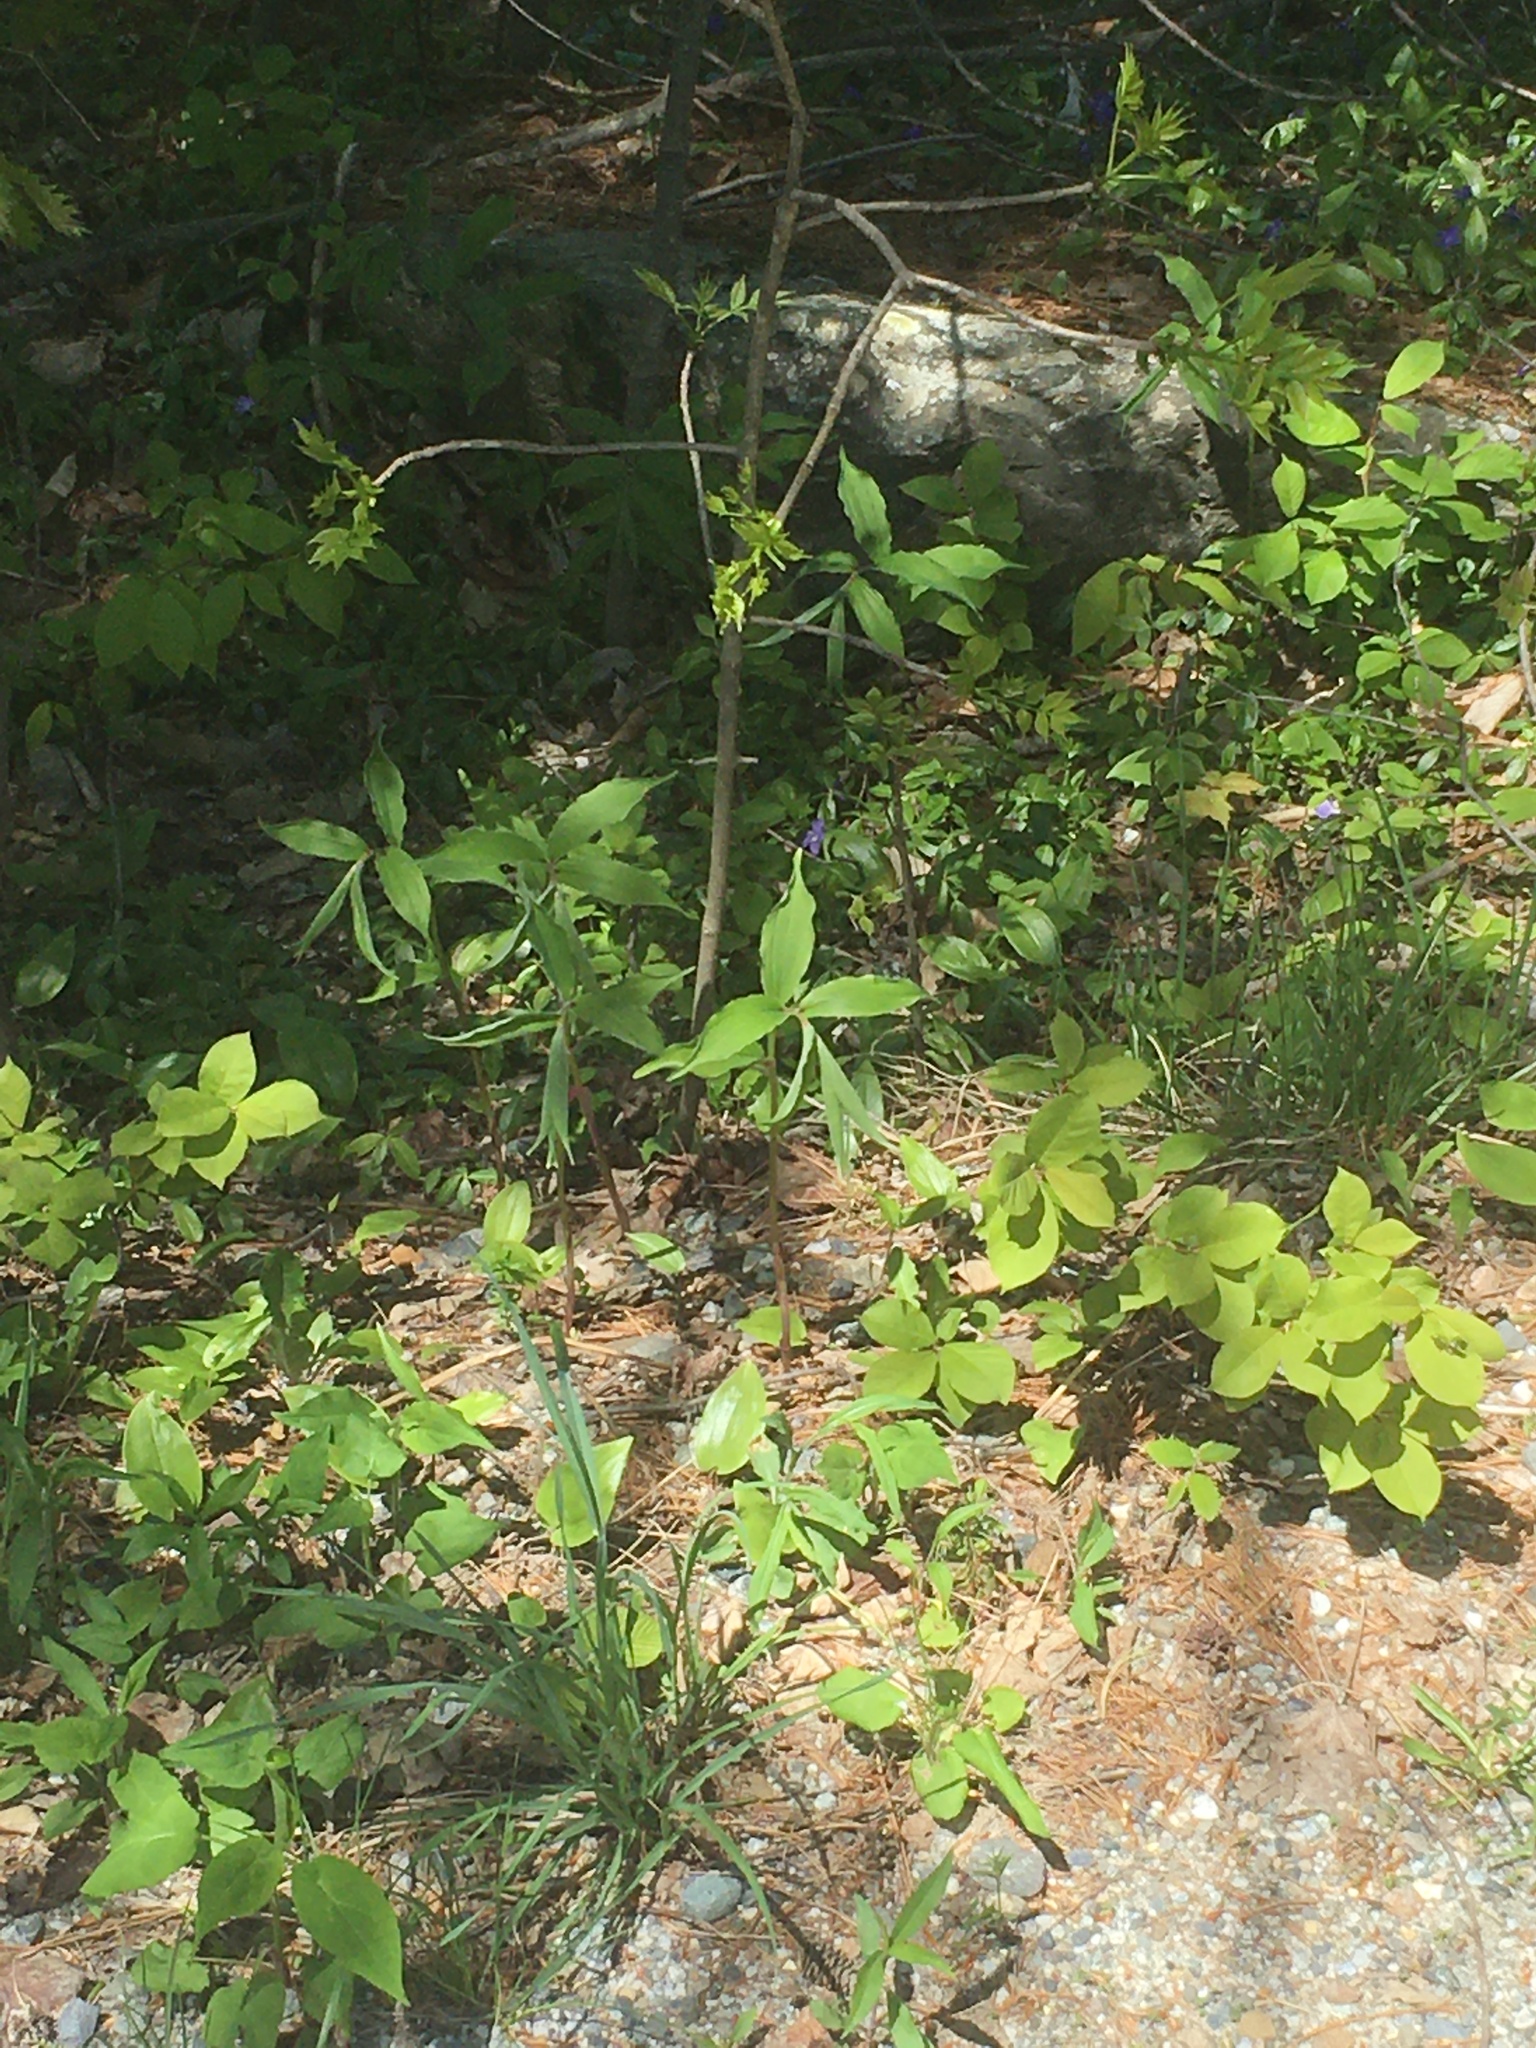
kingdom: Plantae
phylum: Tracheophyta
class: Liliopsida
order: Asparagales
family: Asparagaceae
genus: Maianthemum
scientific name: Maianthemum racemosum
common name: False spikenard
